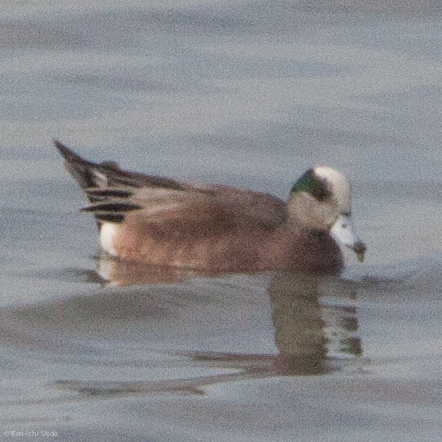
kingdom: Animalia
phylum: Chordata
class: Aves
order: Anseriformes
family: Anatidae
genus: Mareca
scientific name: Mareca americana
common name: American wigeon
